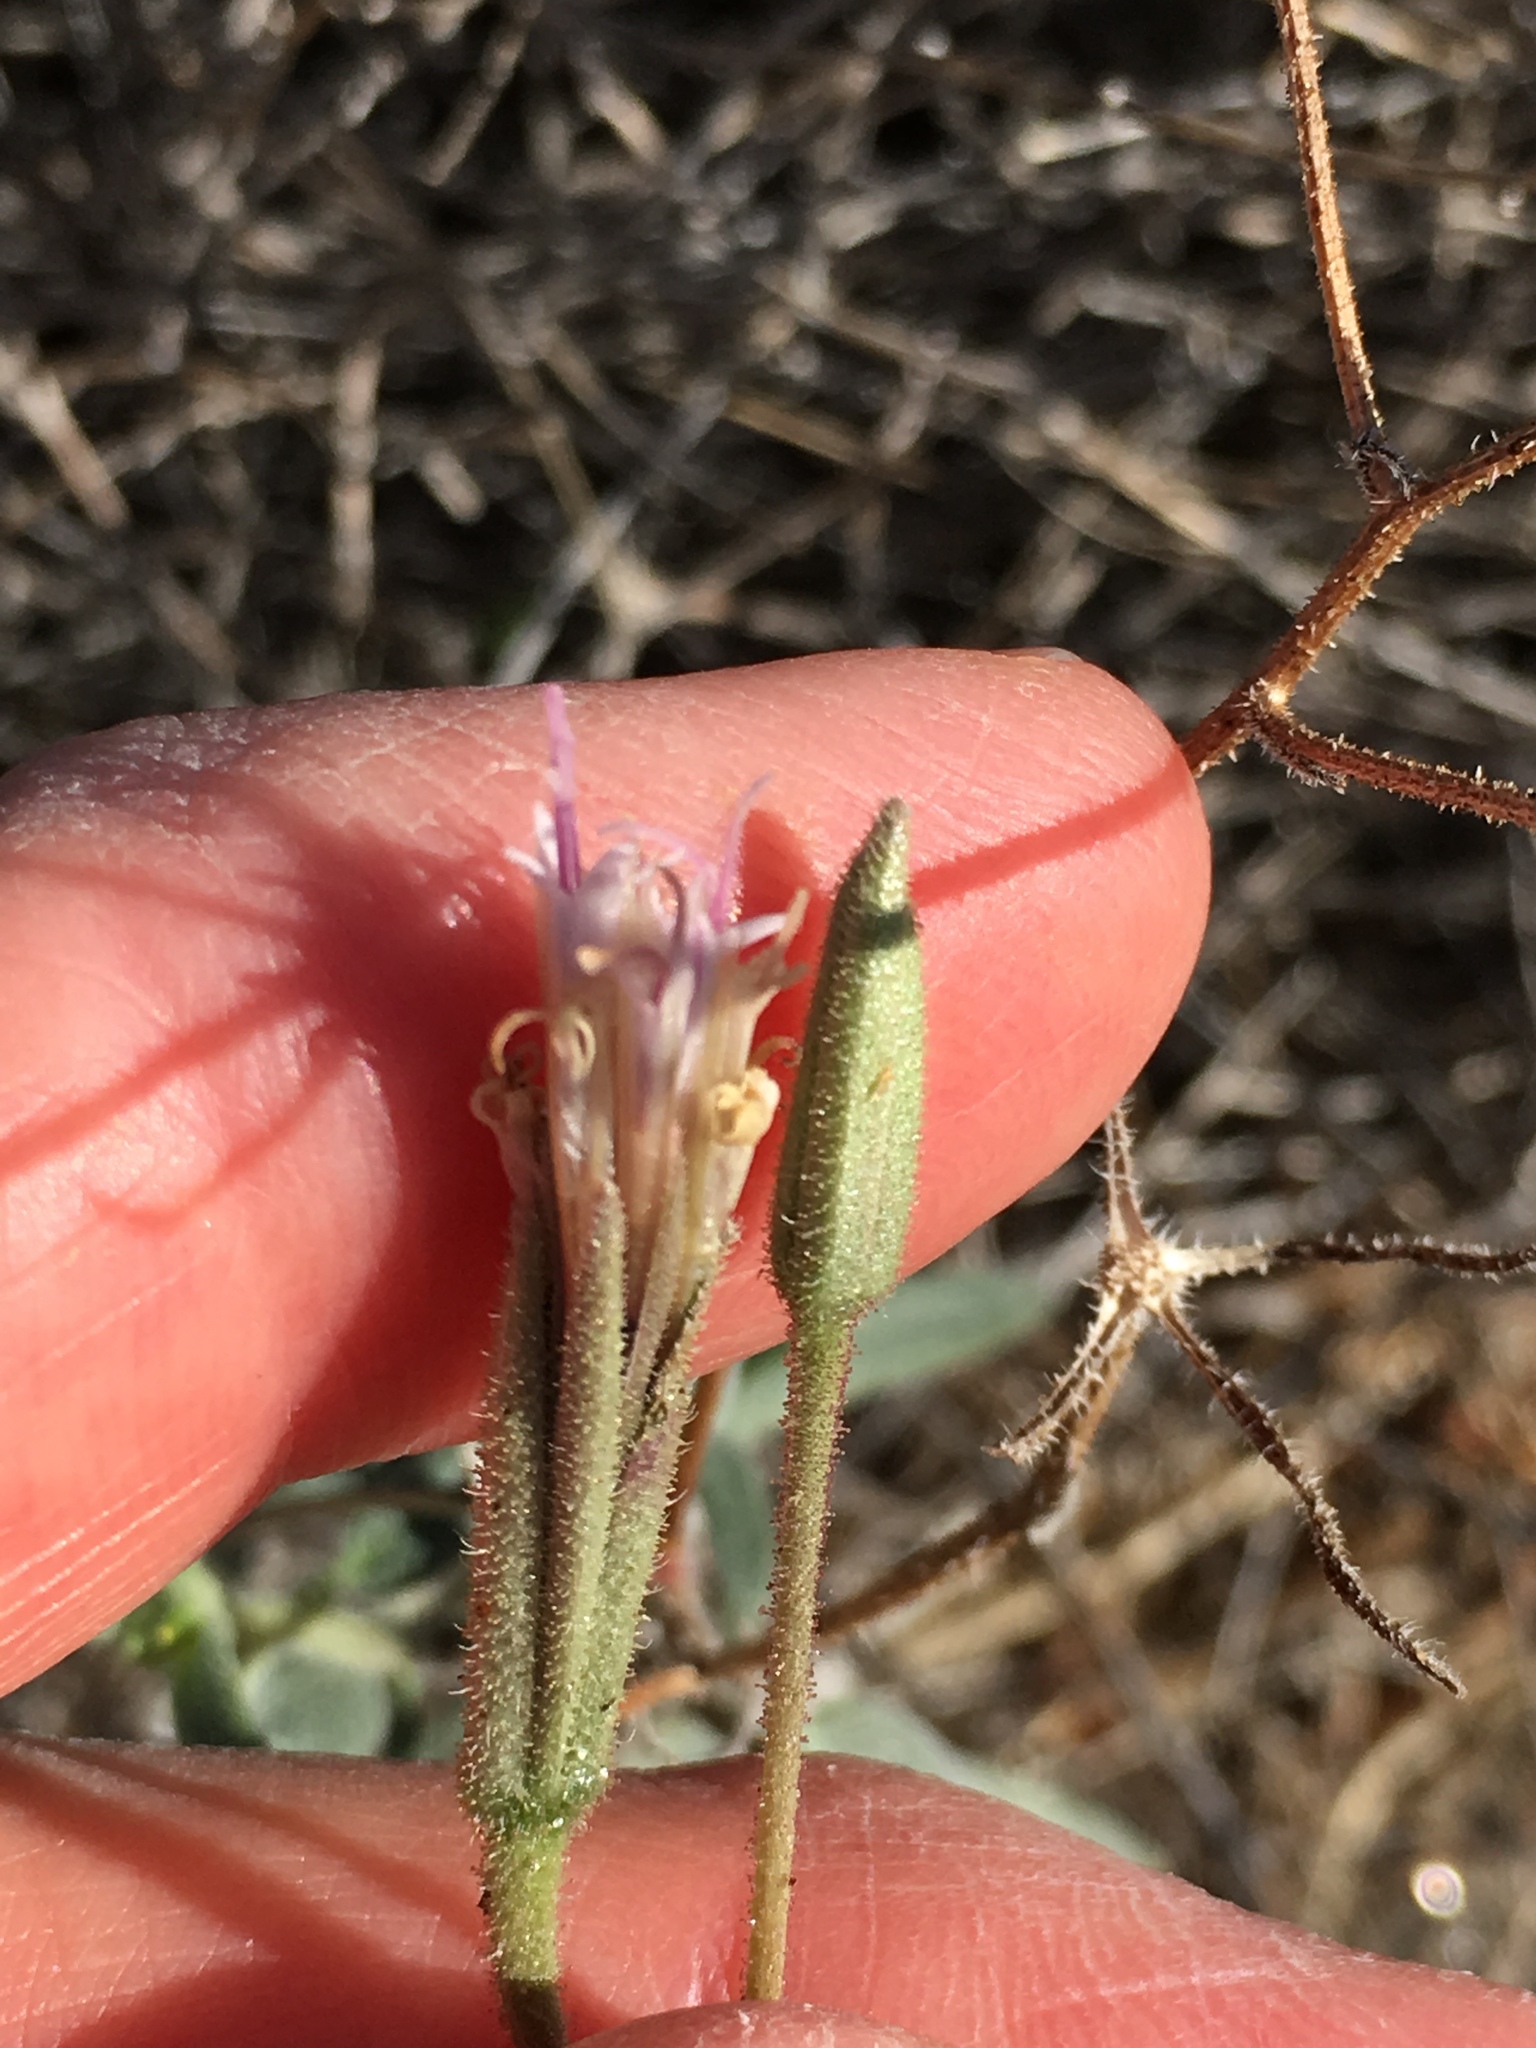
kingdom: Plantae
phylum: Tracheophyta
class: Magnoliopsida
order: Asterales
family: Asteraceae
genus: Palafoxia
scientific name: Palafoxia arida
